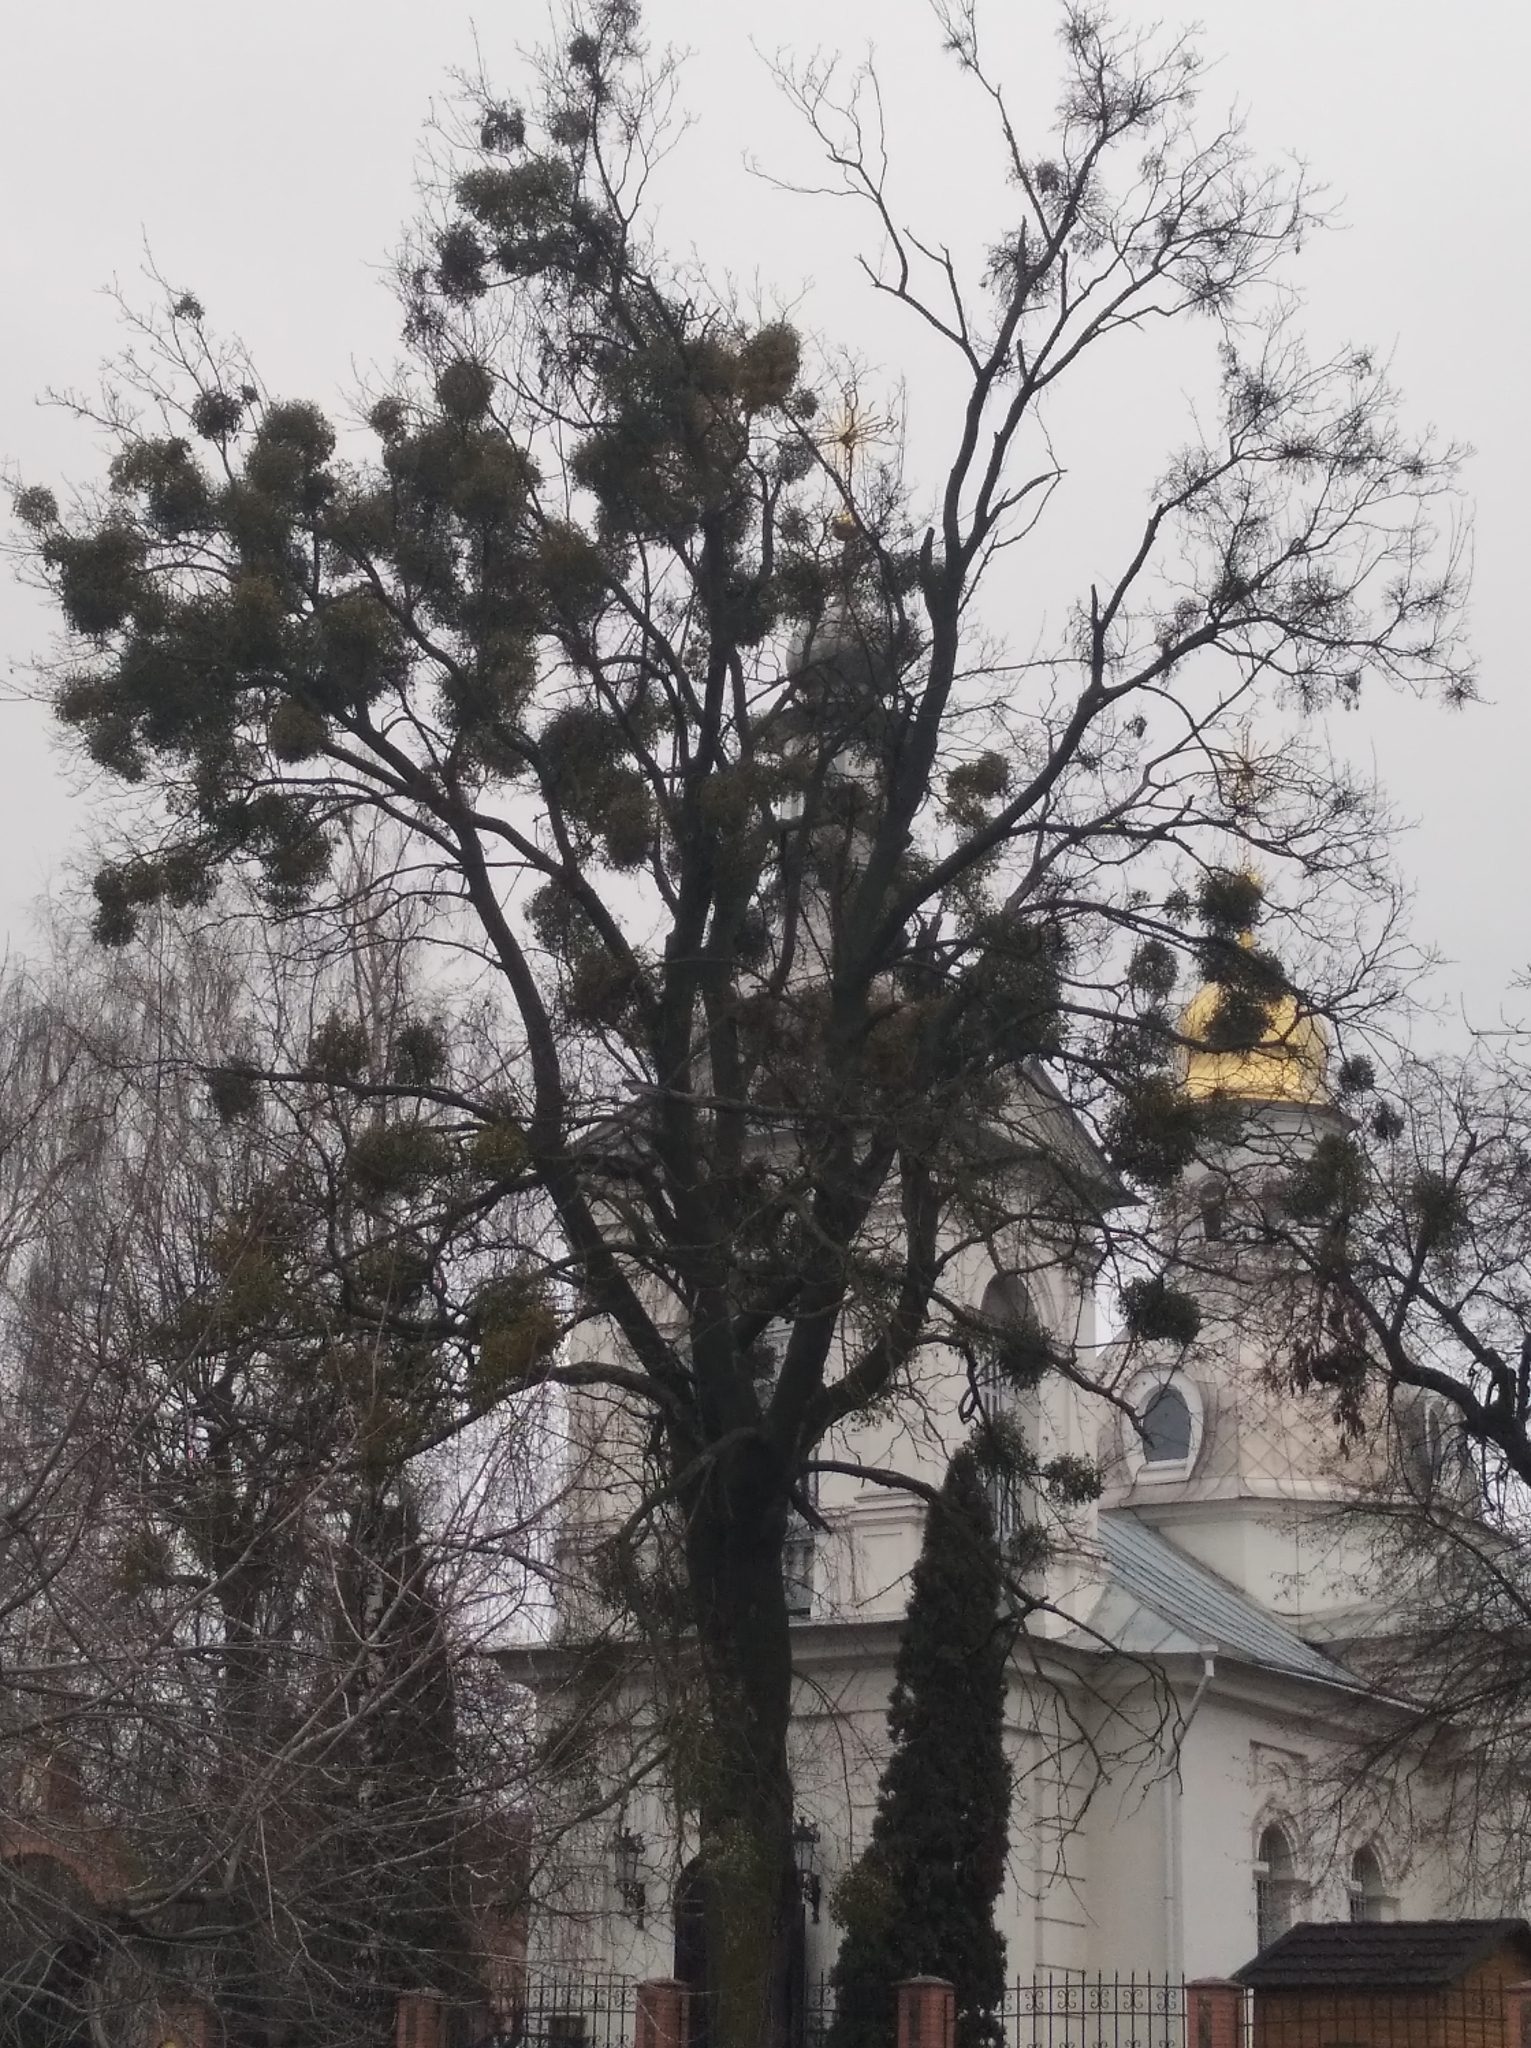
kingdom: Plantae
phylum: Tracheophyta
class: Magnoliopsida
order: Santalales
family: Viscaceae
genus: Viscum
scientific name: Viscum album
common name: Mistletoe
